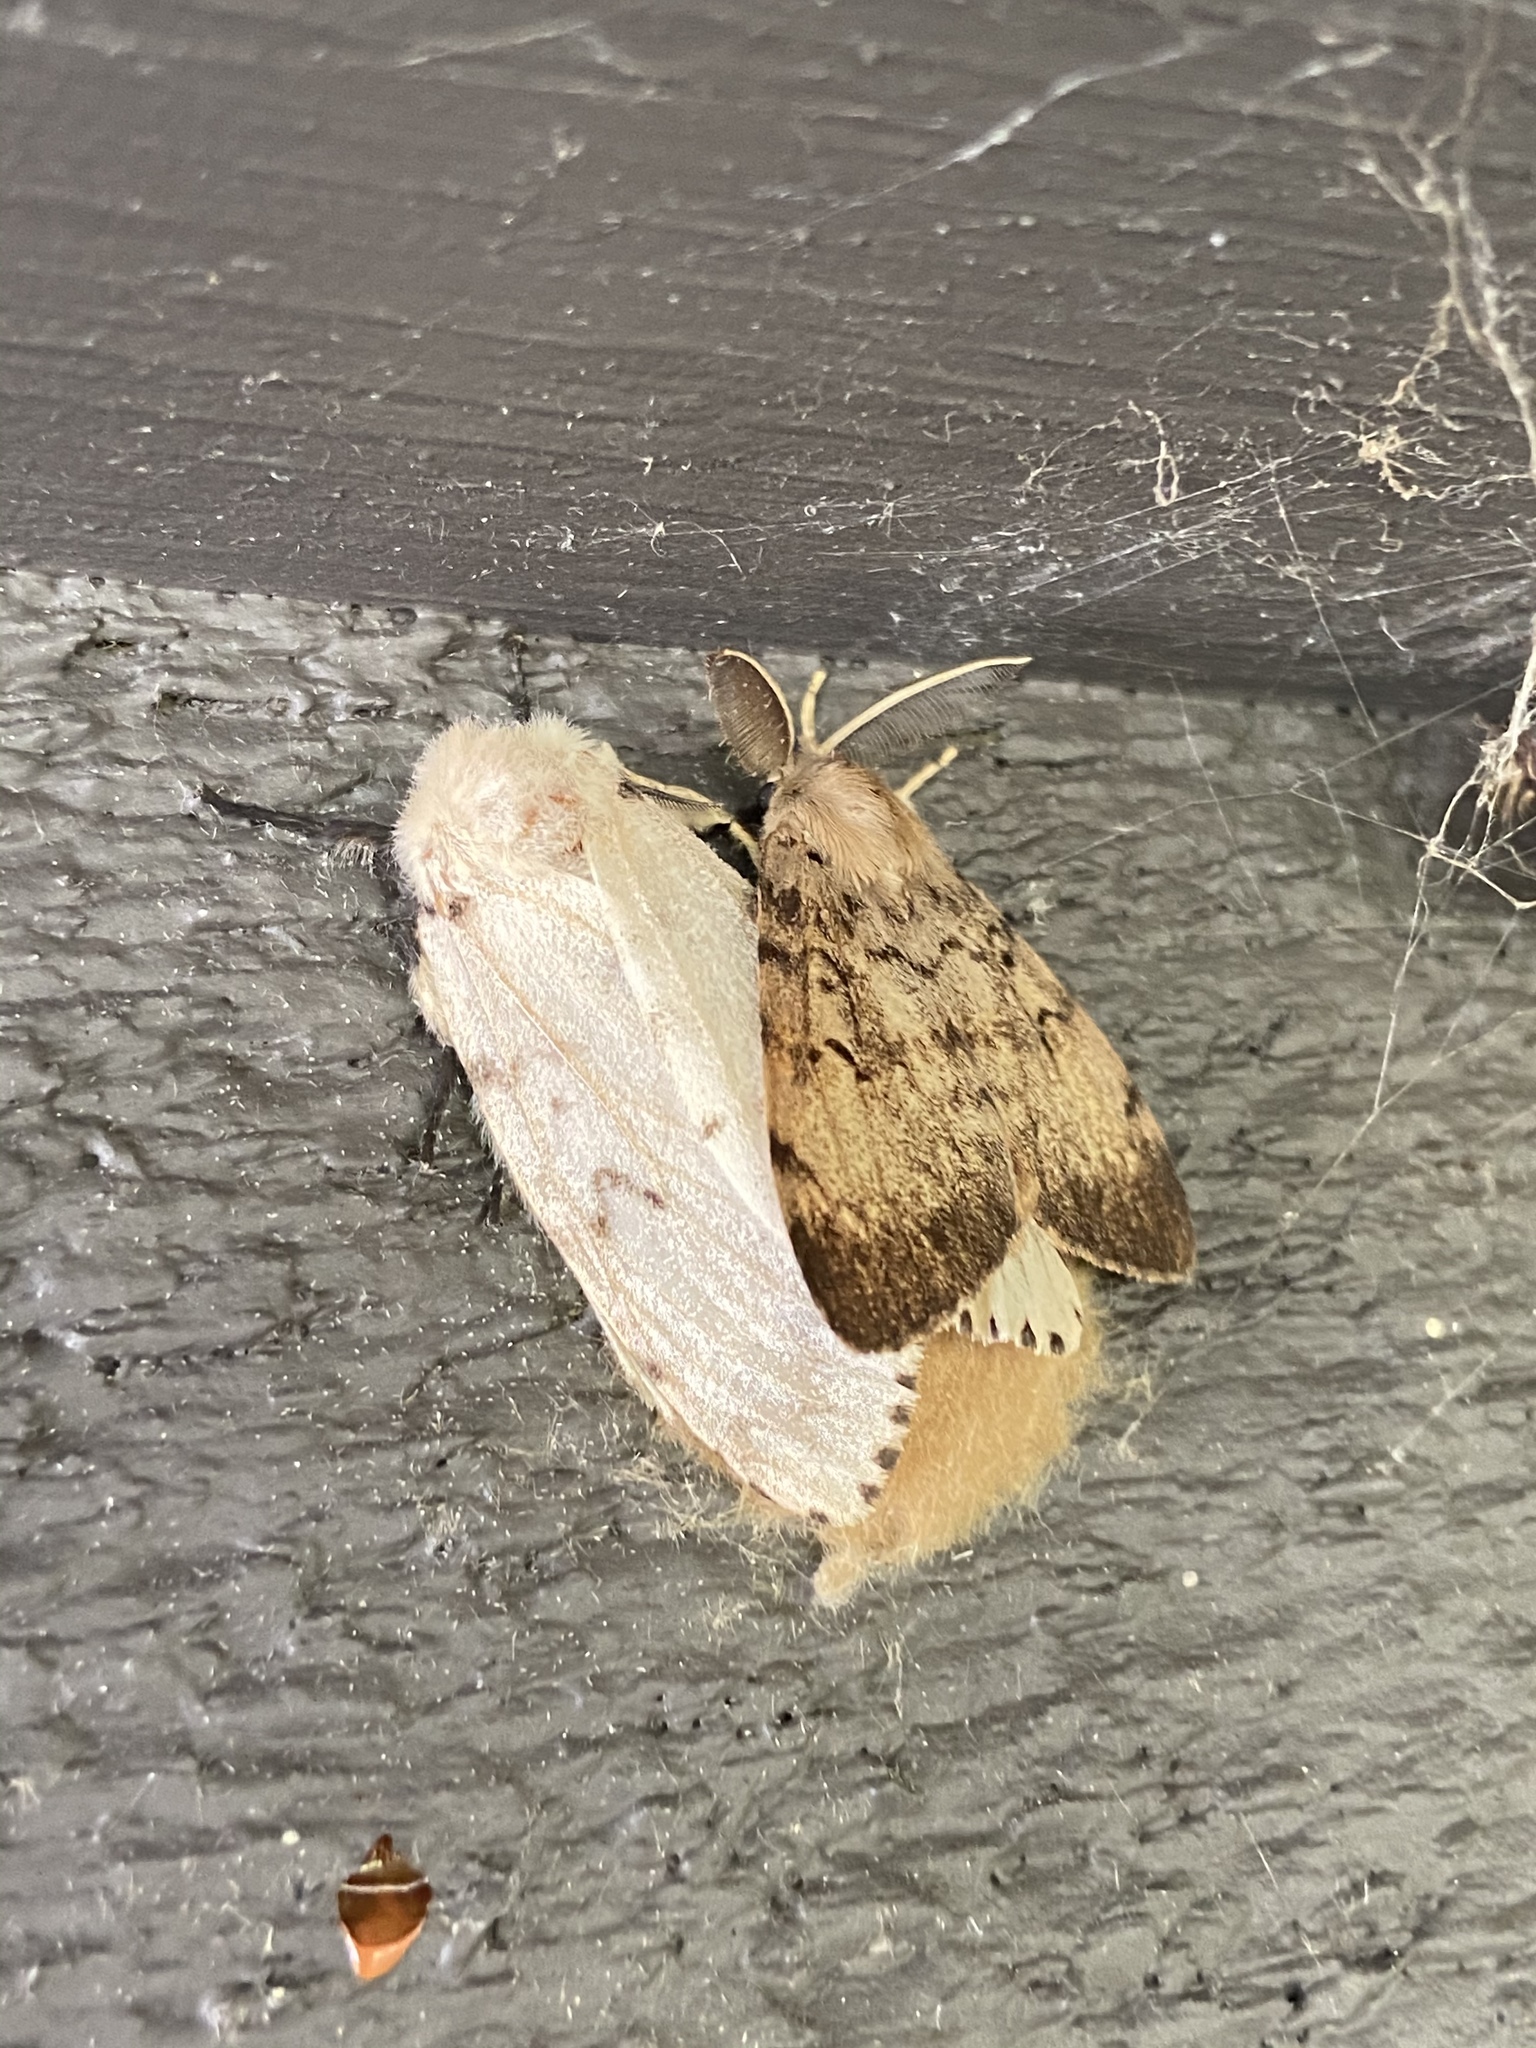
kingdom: Animalia
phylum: Arthropoda
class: Insecta
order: Lepidoptera
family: Erebidae
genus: Lymantria
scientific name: Lymantria dispar
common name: Gypsy moth
